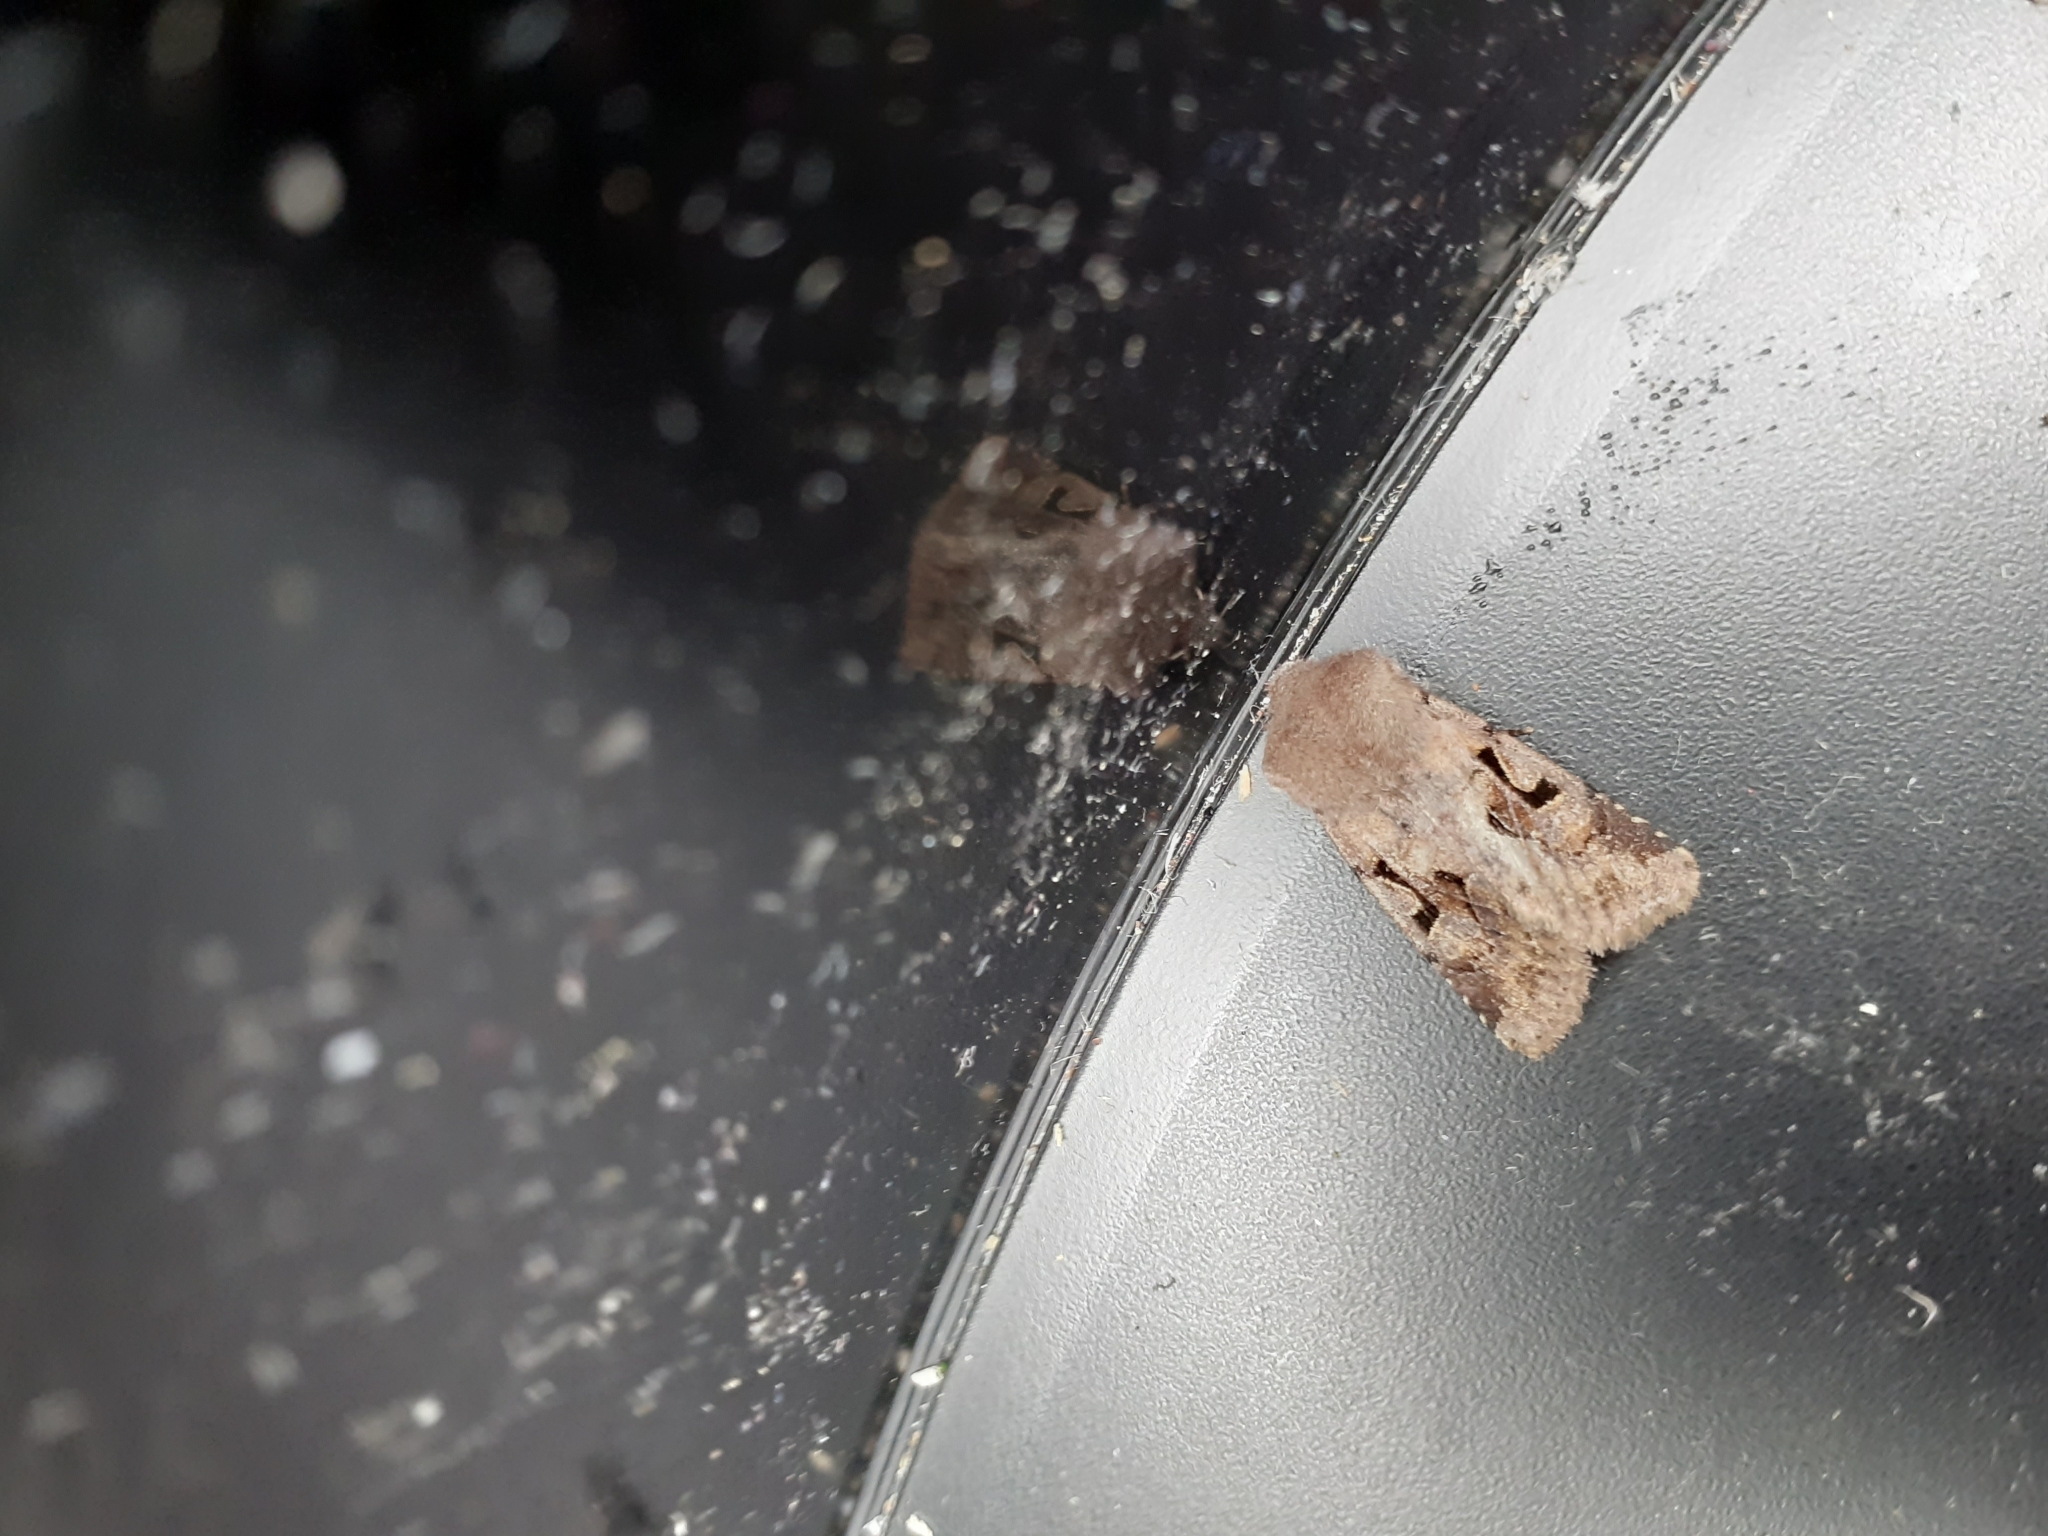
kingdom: Animalia
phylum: Arthropoda
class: Insecta
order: Lepidoptera
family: Noctuidae
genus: Orthosia
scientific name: Orthosia gothica
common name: Hebrew character
